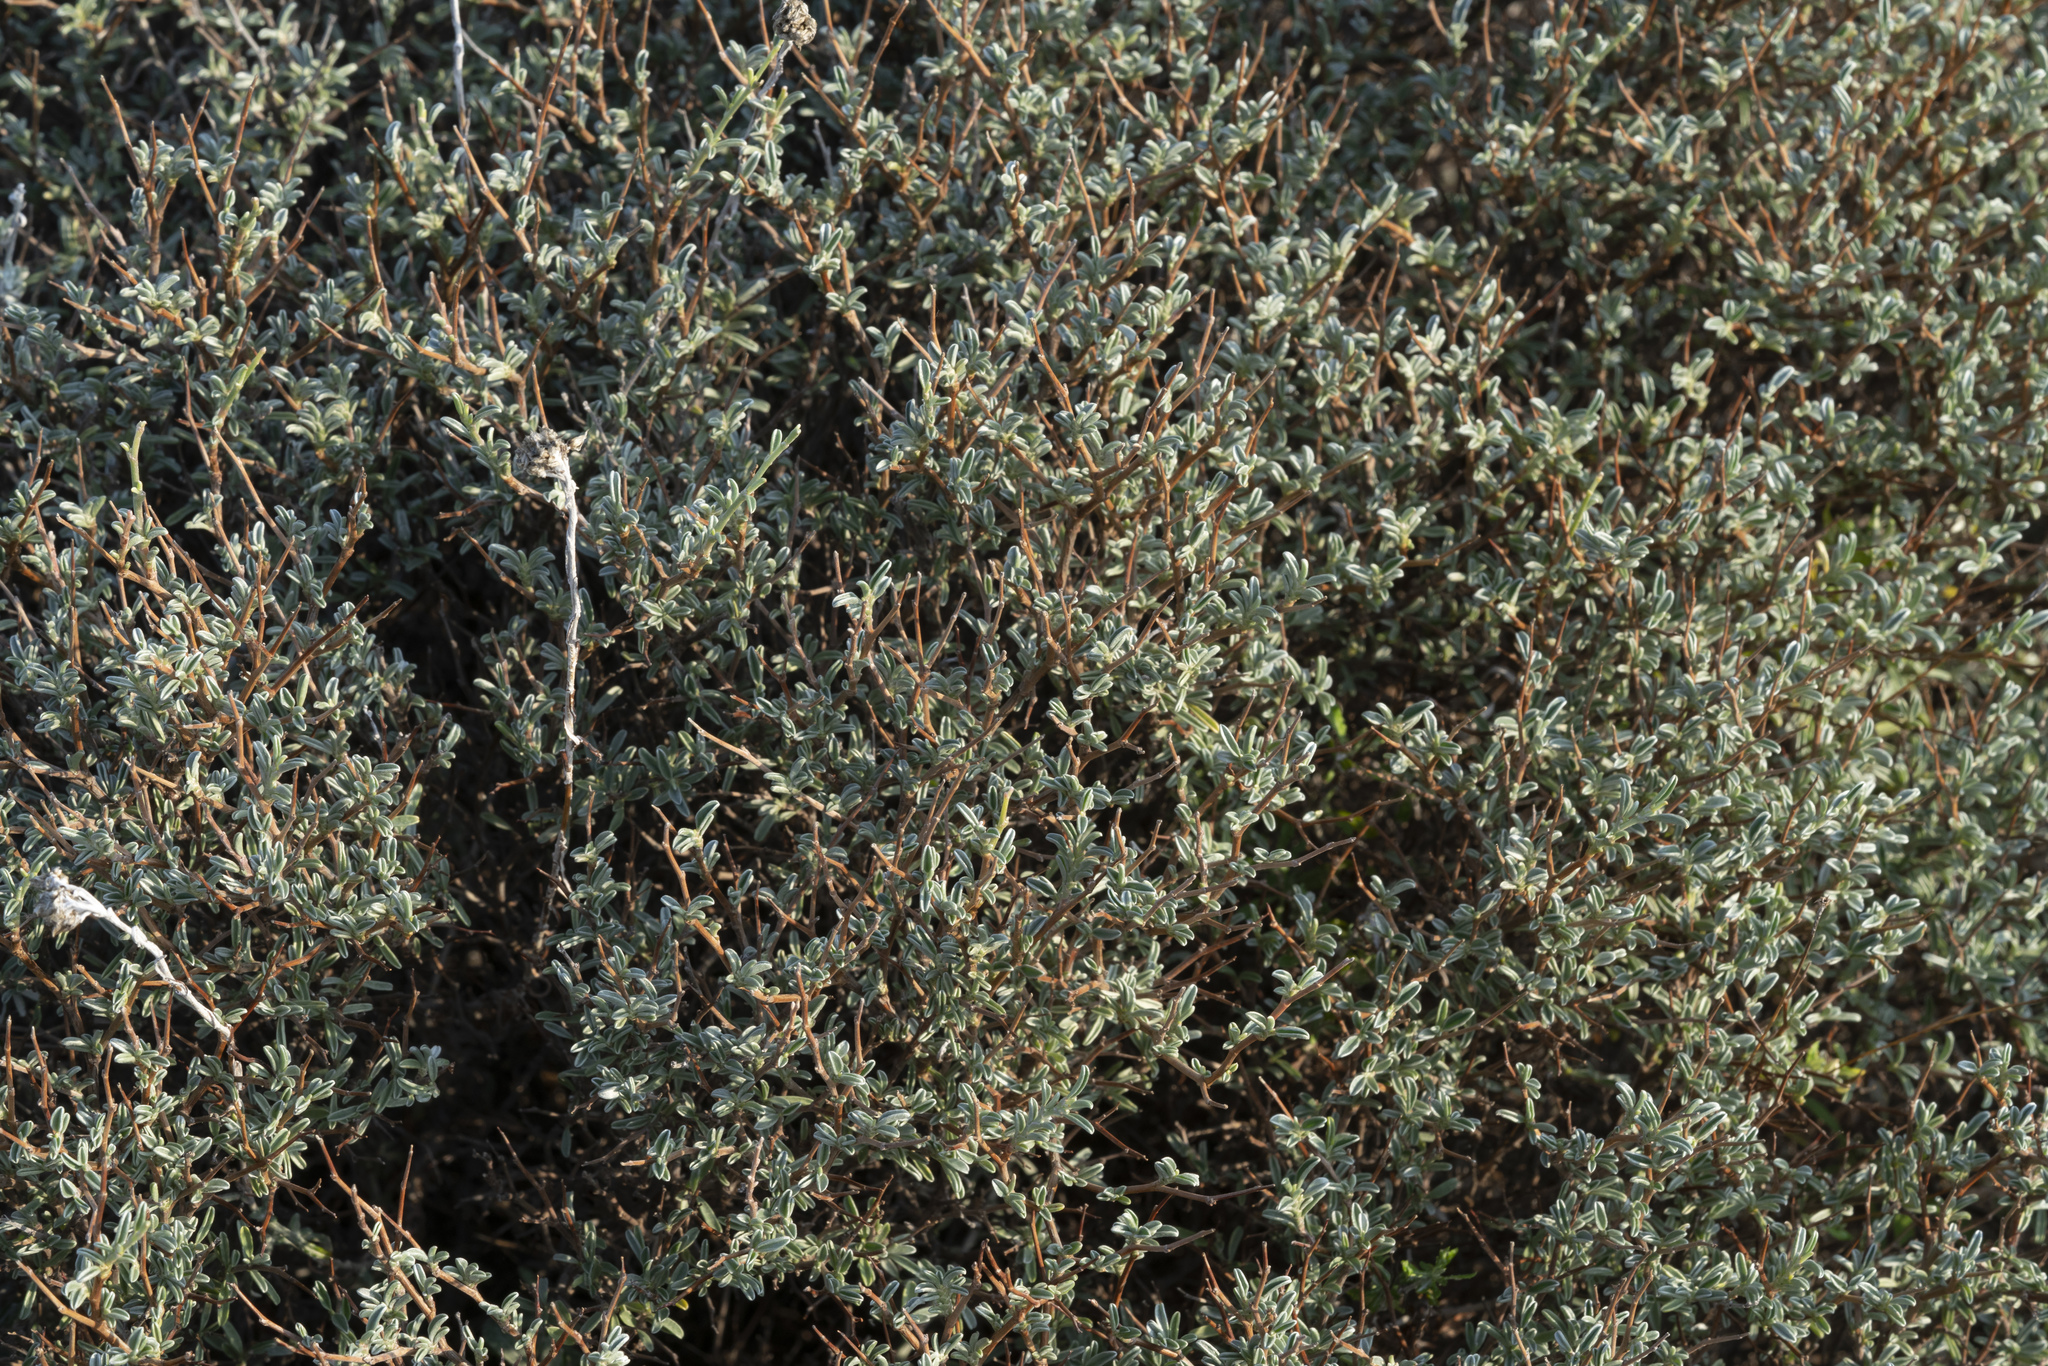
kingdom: Plantae
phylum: Tracheophyta
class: Magnoliopsida
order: Fabales
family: Fabaceae
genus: Anthyllis
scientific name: Anthyllis hermanniae
